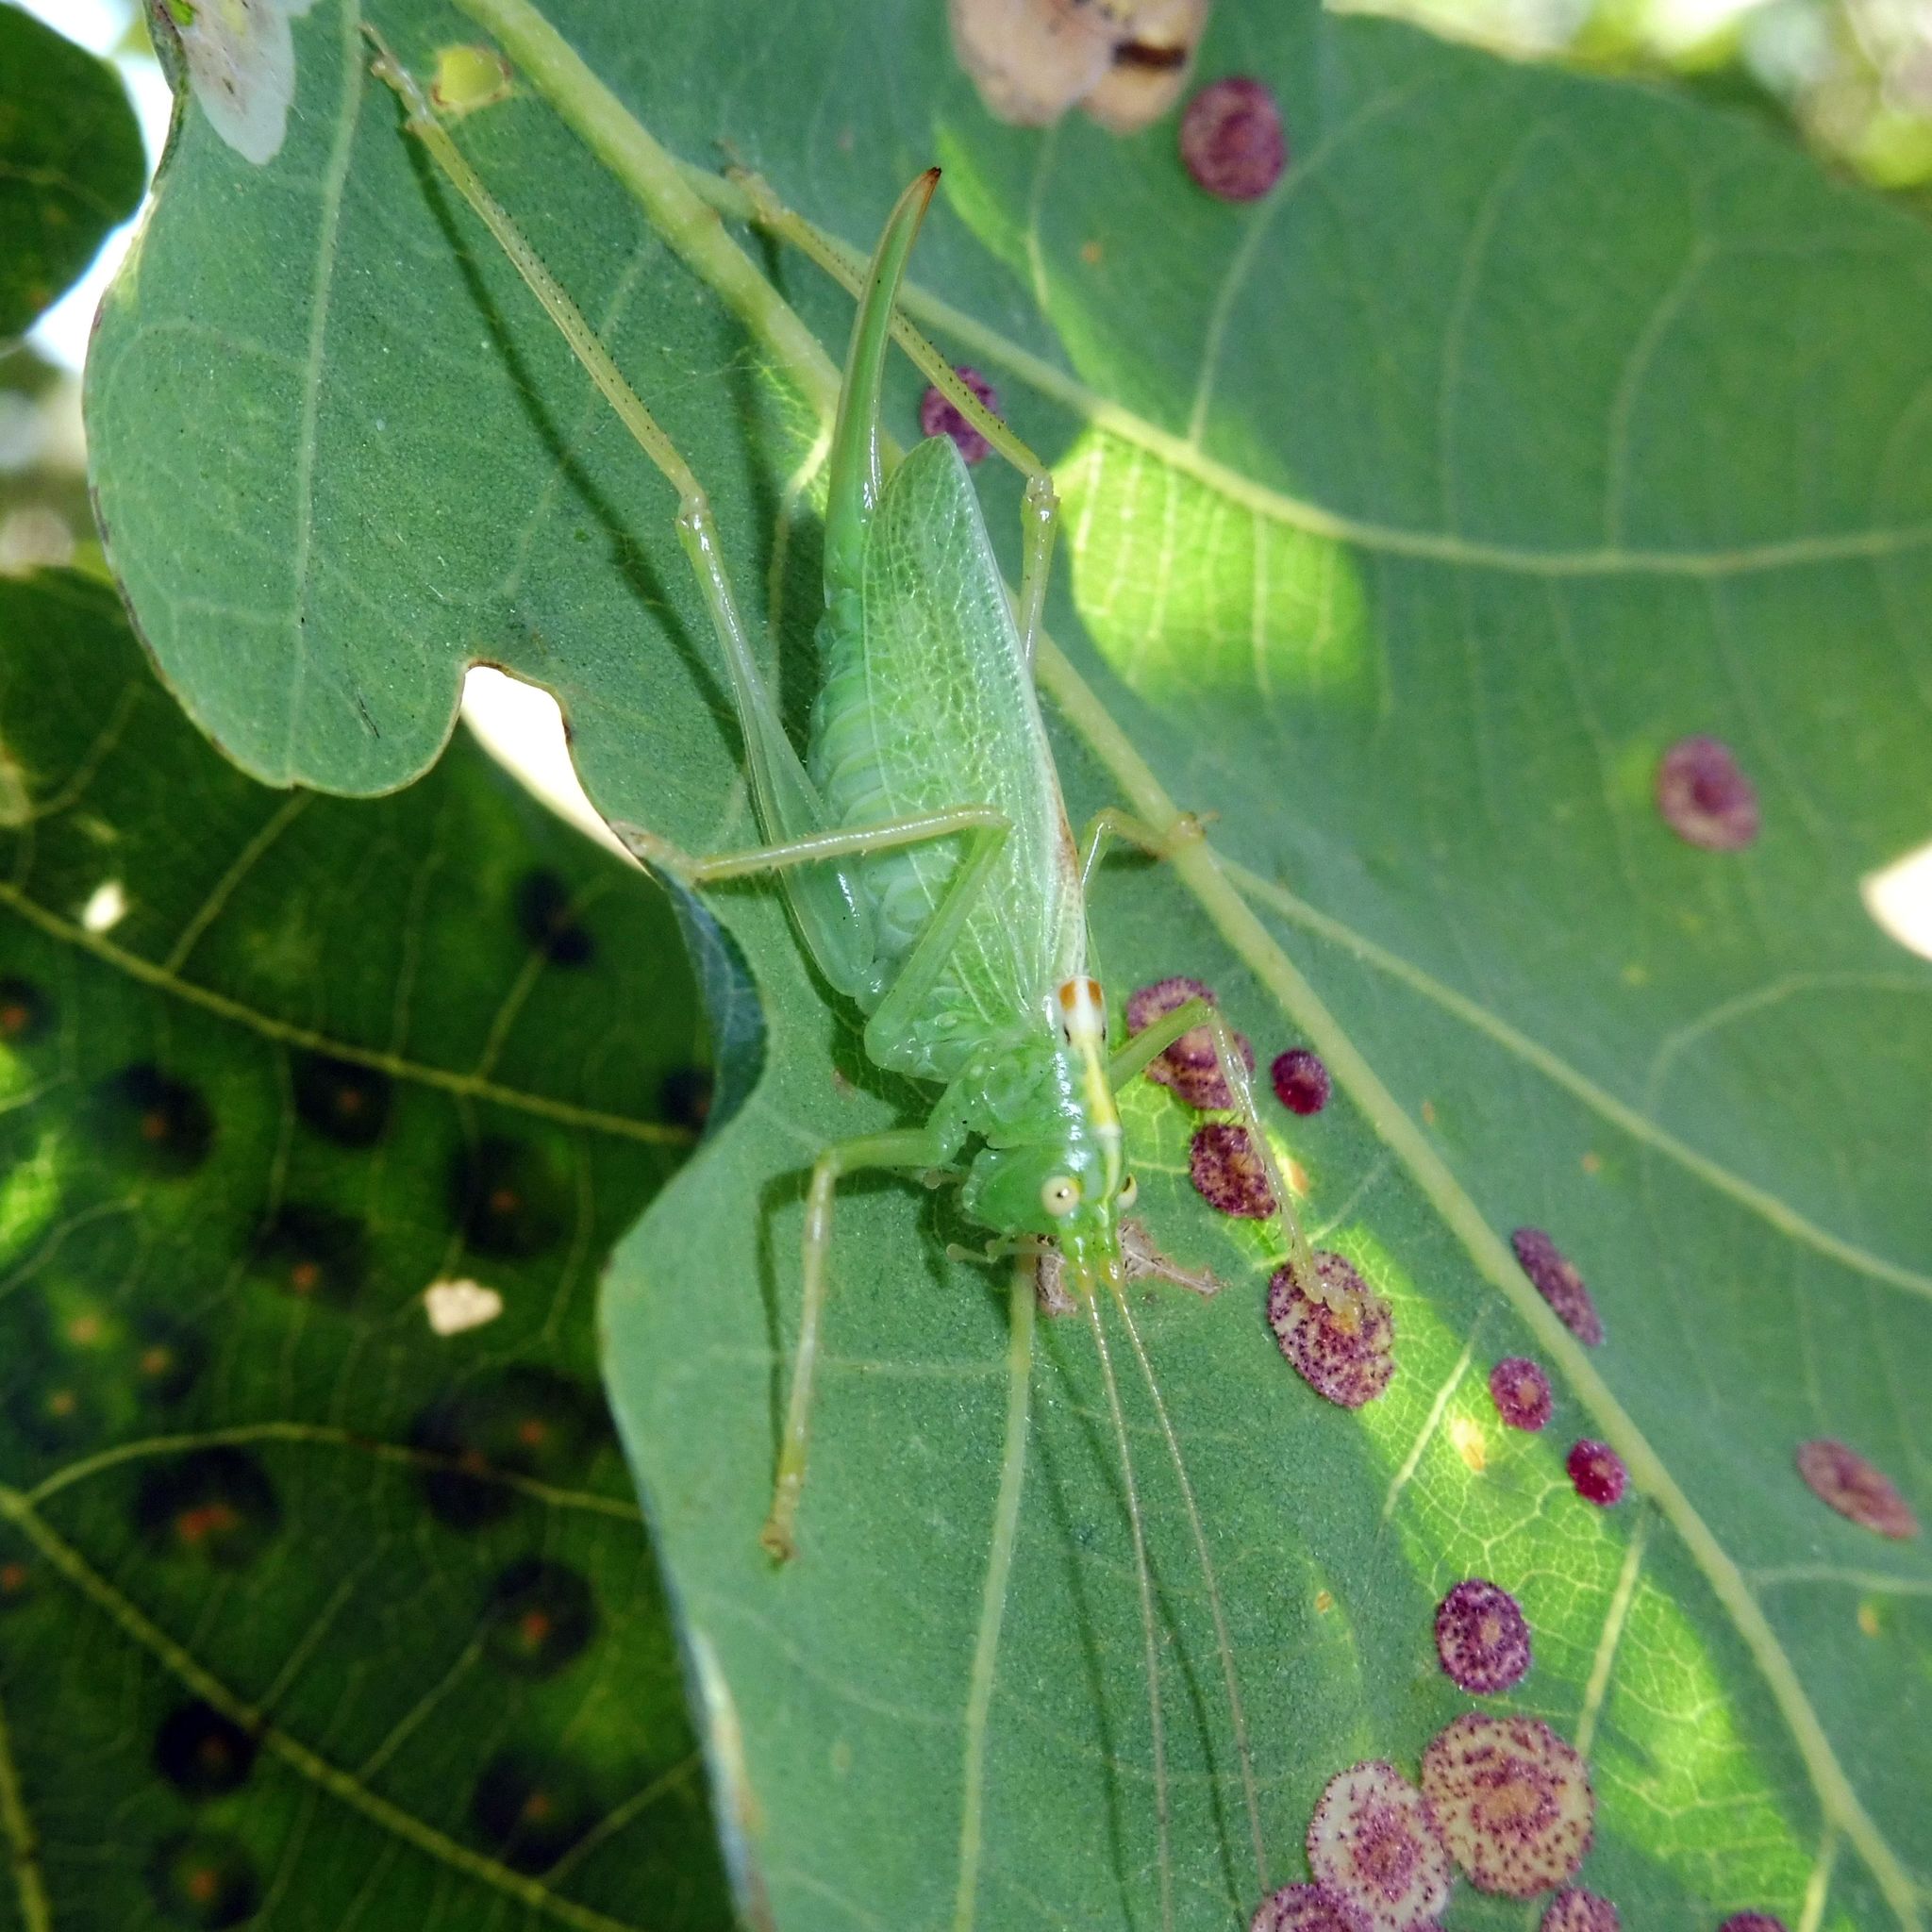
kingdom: Animalia
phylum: Arthropoda
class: Insecta
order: Orthoptera
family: Tettigoniidae
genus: Meconema
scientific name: Meconema thalassinum
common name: Oak bush-cricket
